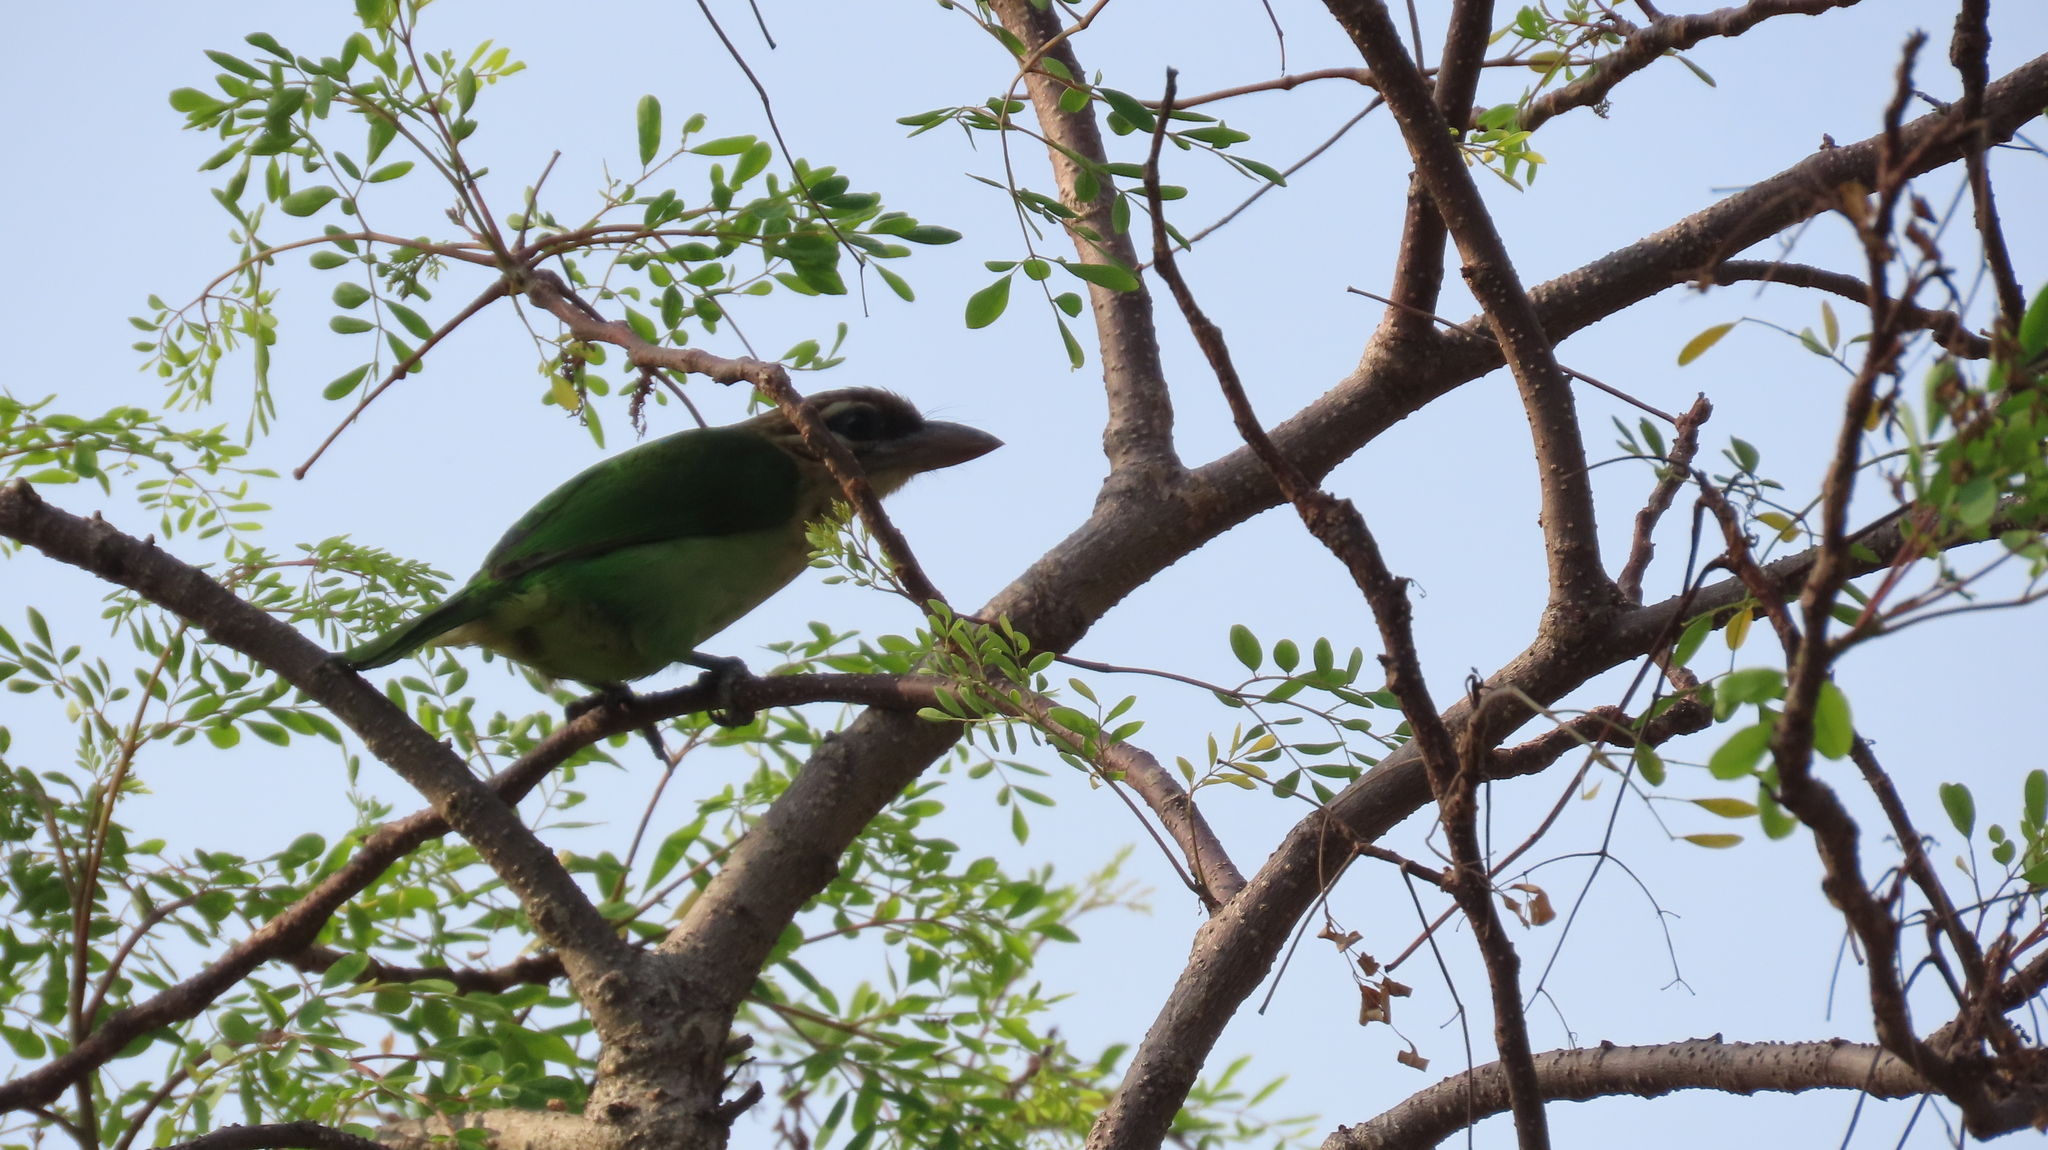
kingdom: Animalia
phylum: Chordata
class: Aves
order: Piciformes
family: Megalaimidae
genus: Psilopogon
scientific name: Psilopogon viridis
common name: White-cheeked barbet
